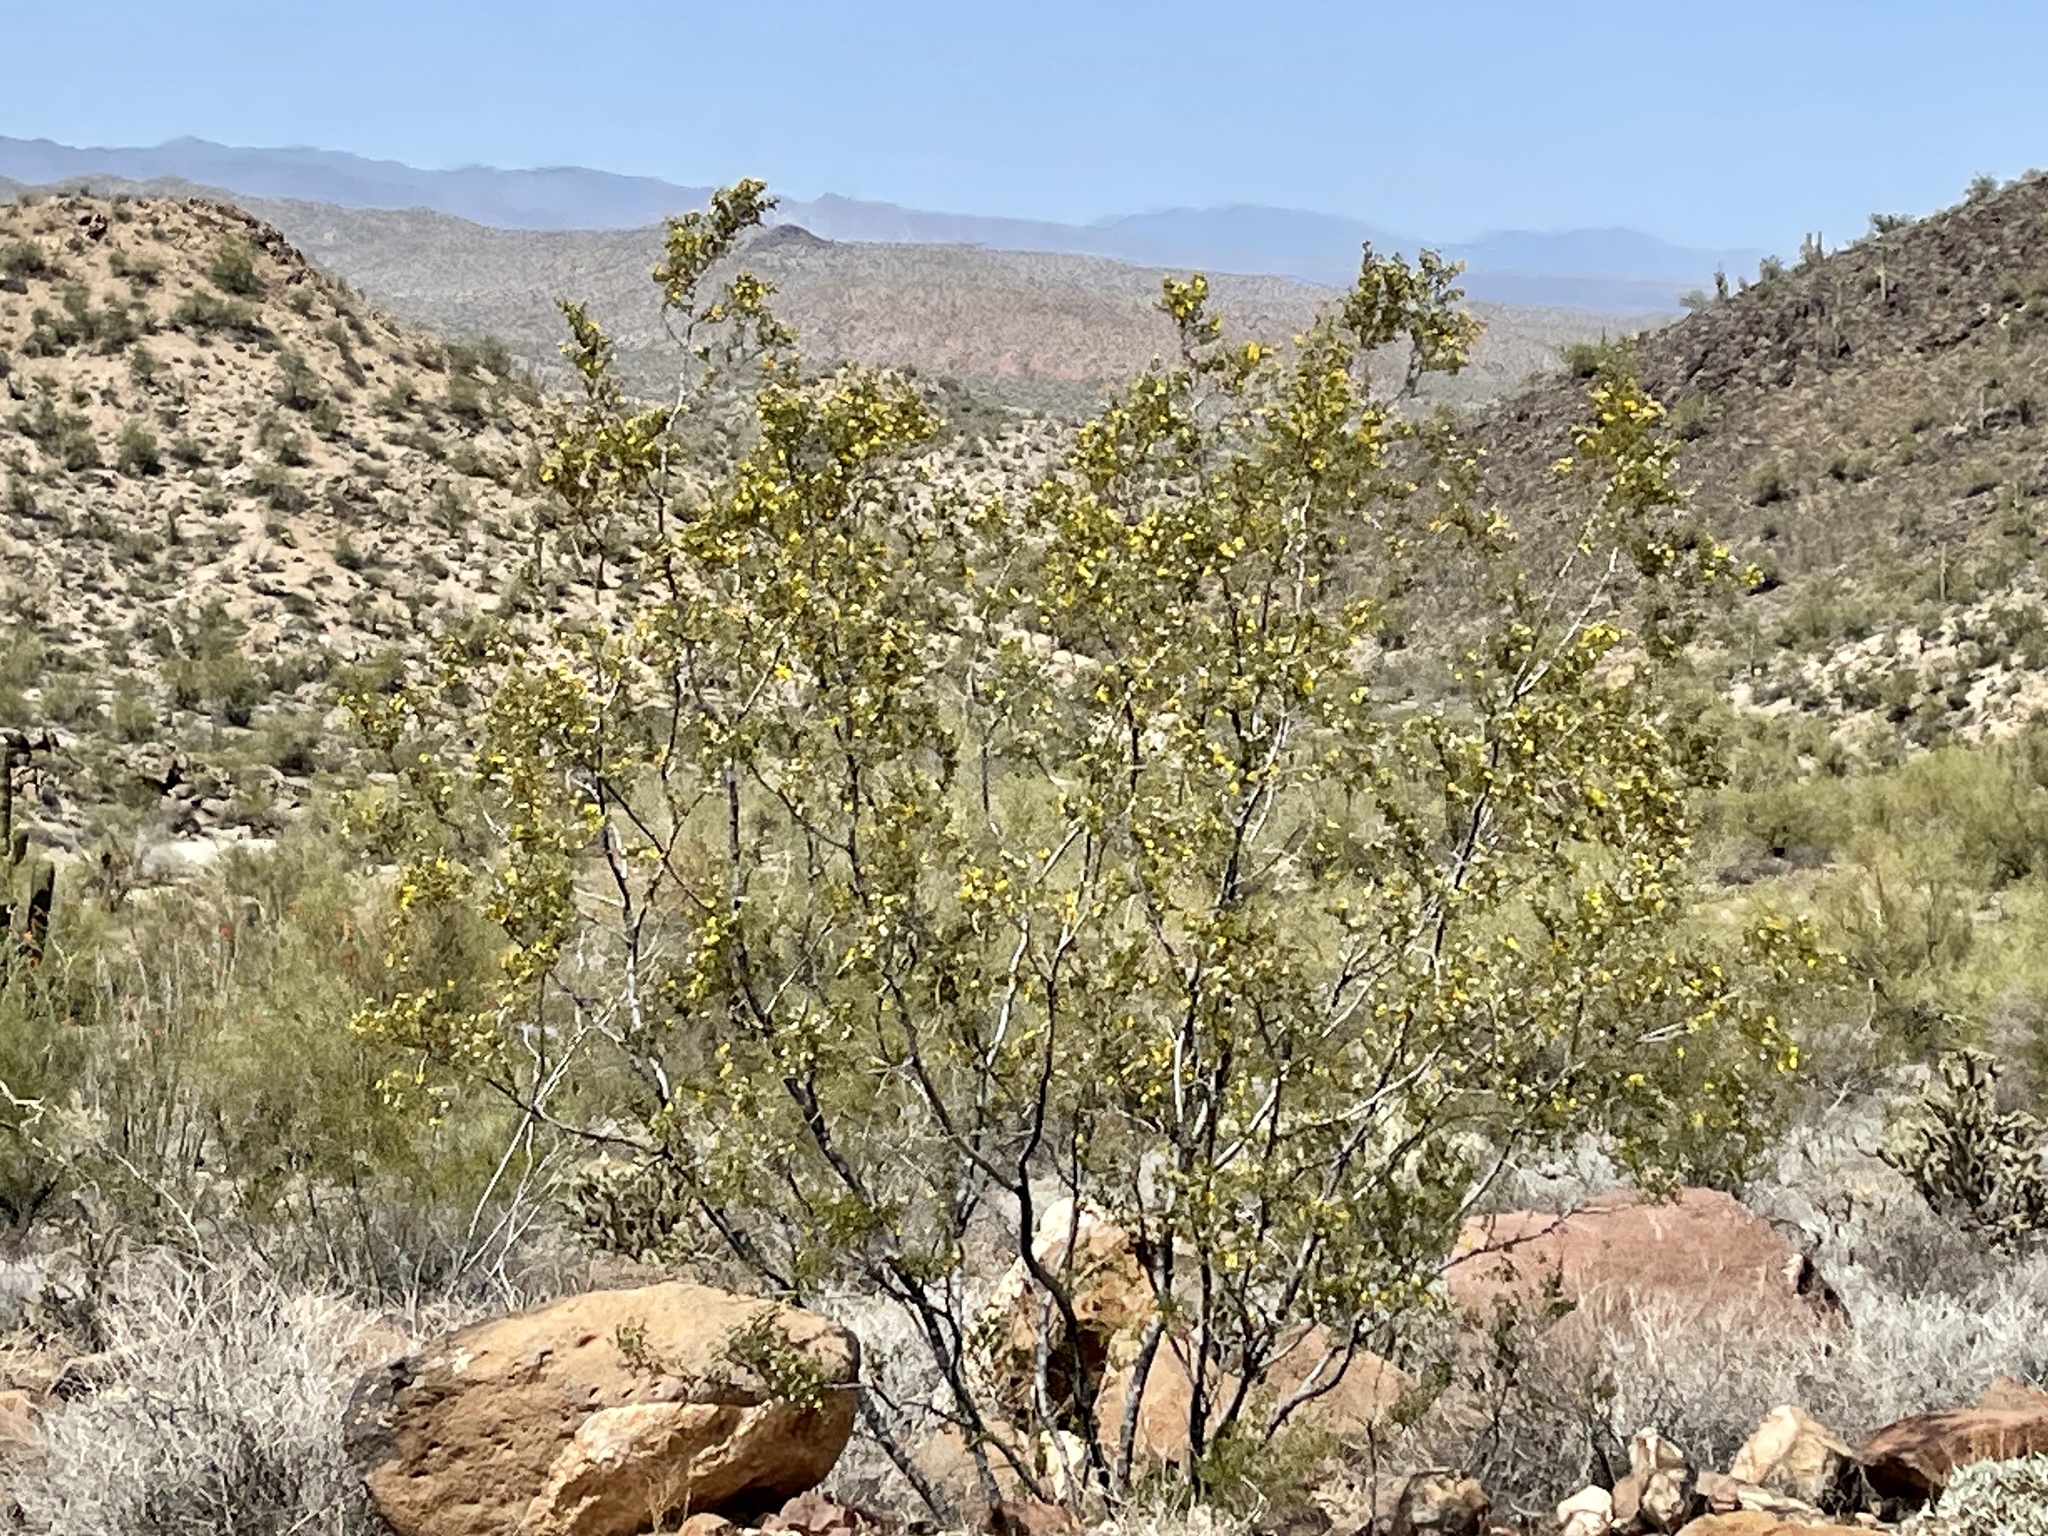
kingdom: Plantae
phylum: Tracheophyta
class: Magnoliopsida
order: Zygophyllales
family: Zygophyllaceae
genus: Larrea
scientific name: Larrea tridentata
